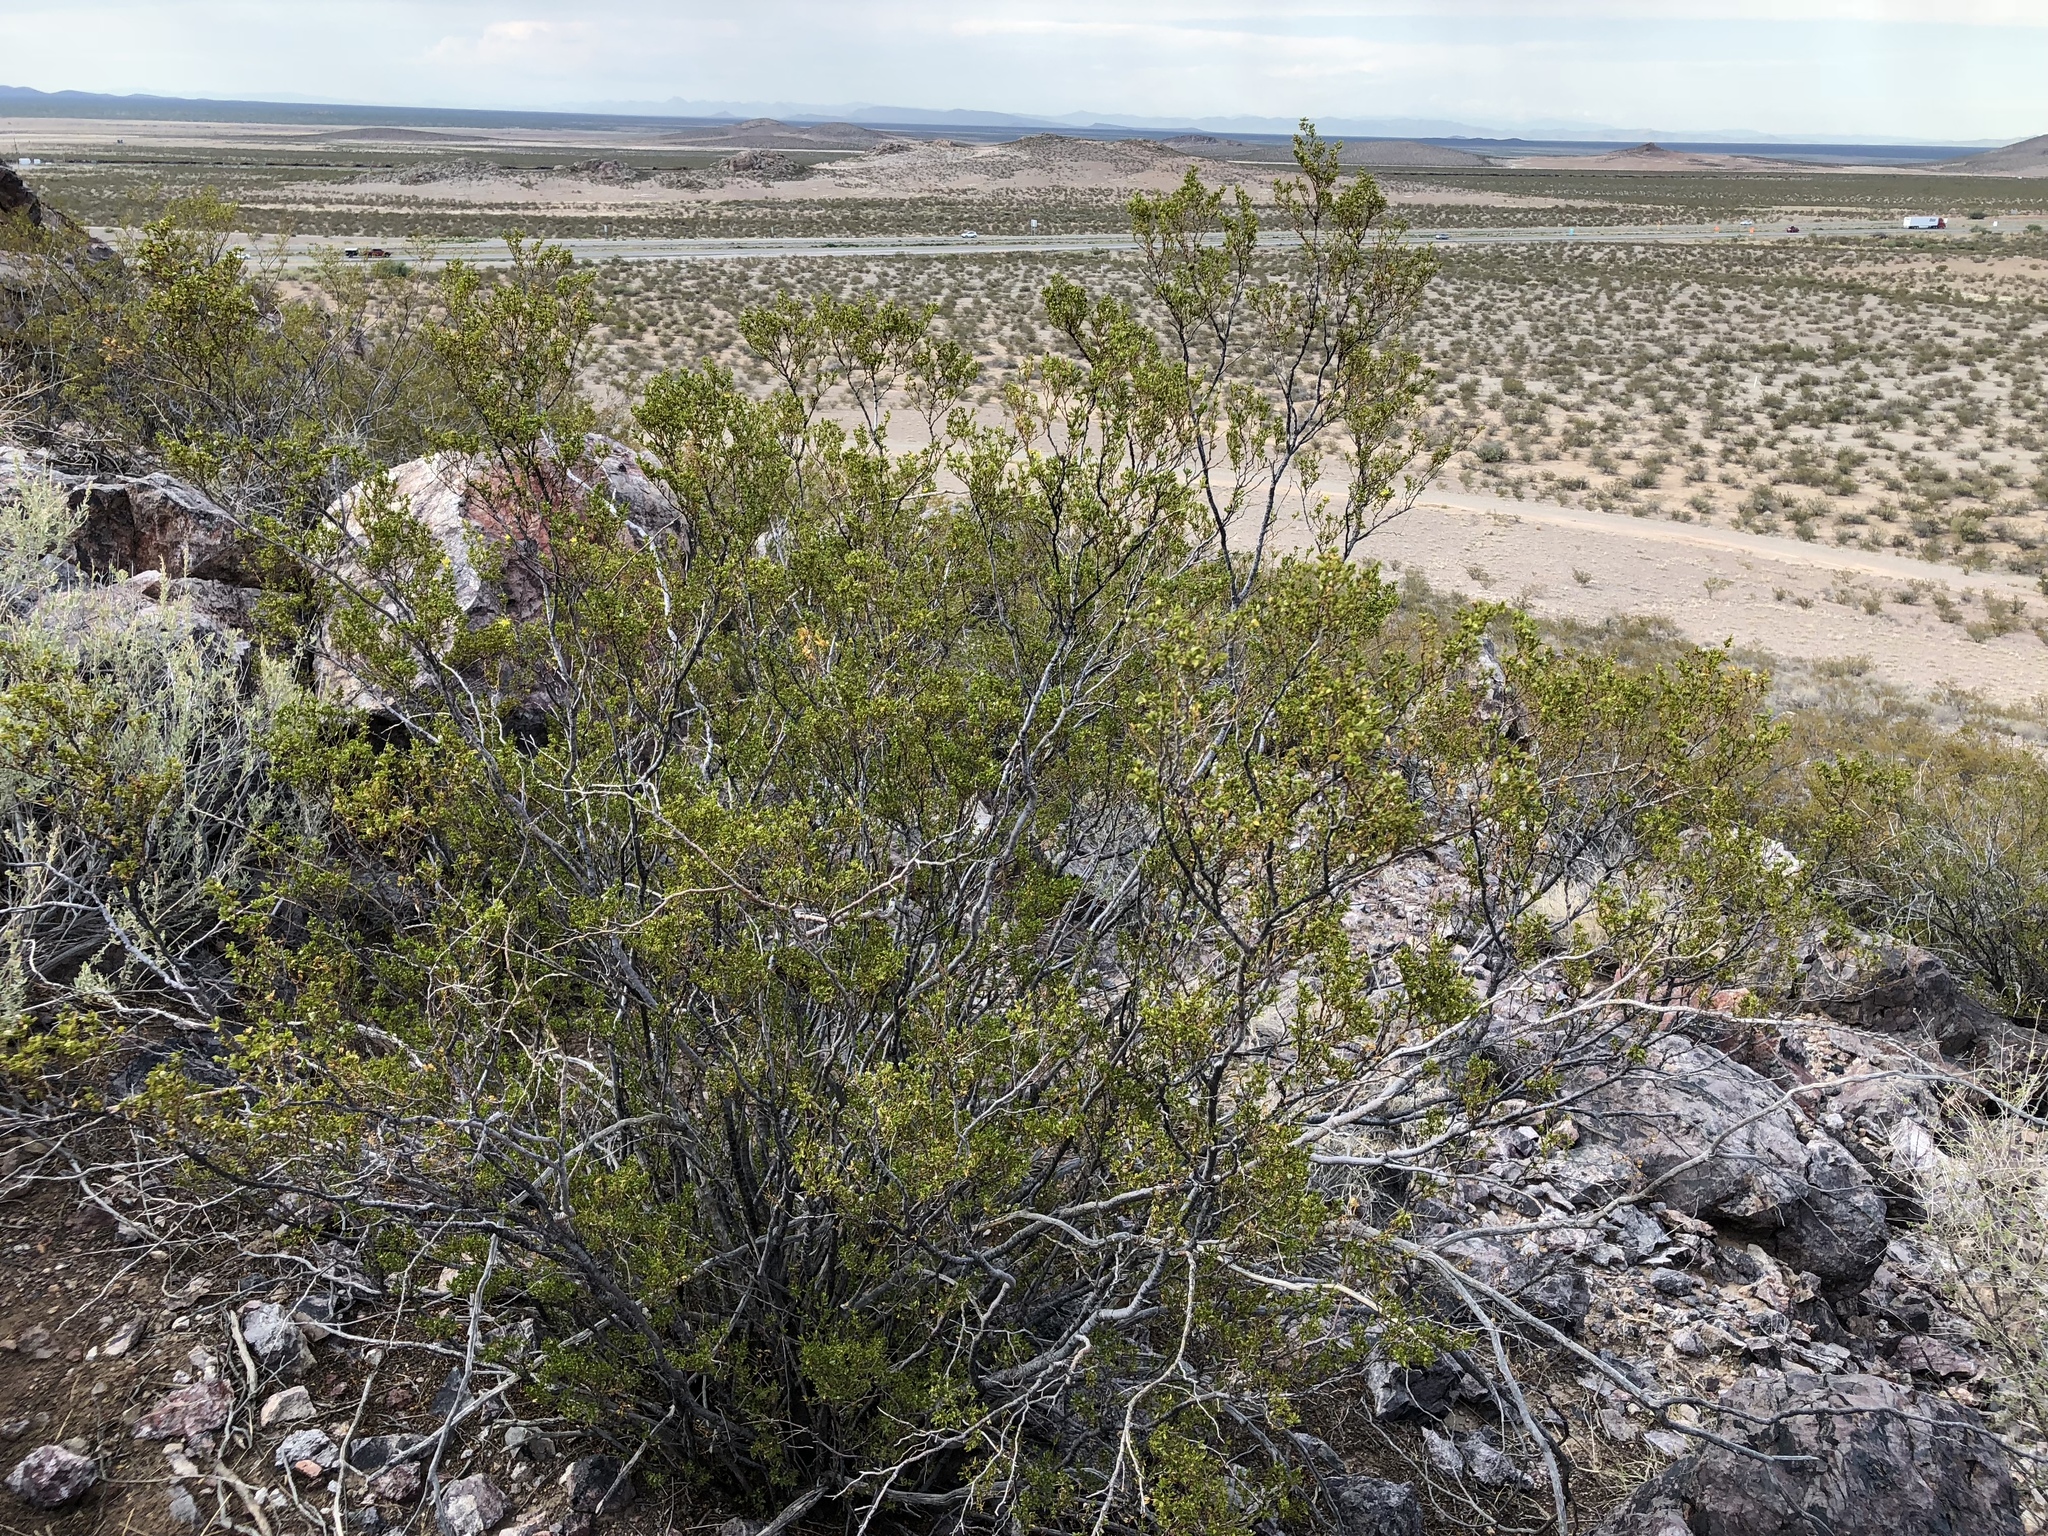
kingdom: Plantae
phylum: Tracheophyta
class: Magnoliopsida
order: Zygophyllales
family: Zygophyllaceae
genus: Larrea
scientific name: Larrea tridentata
